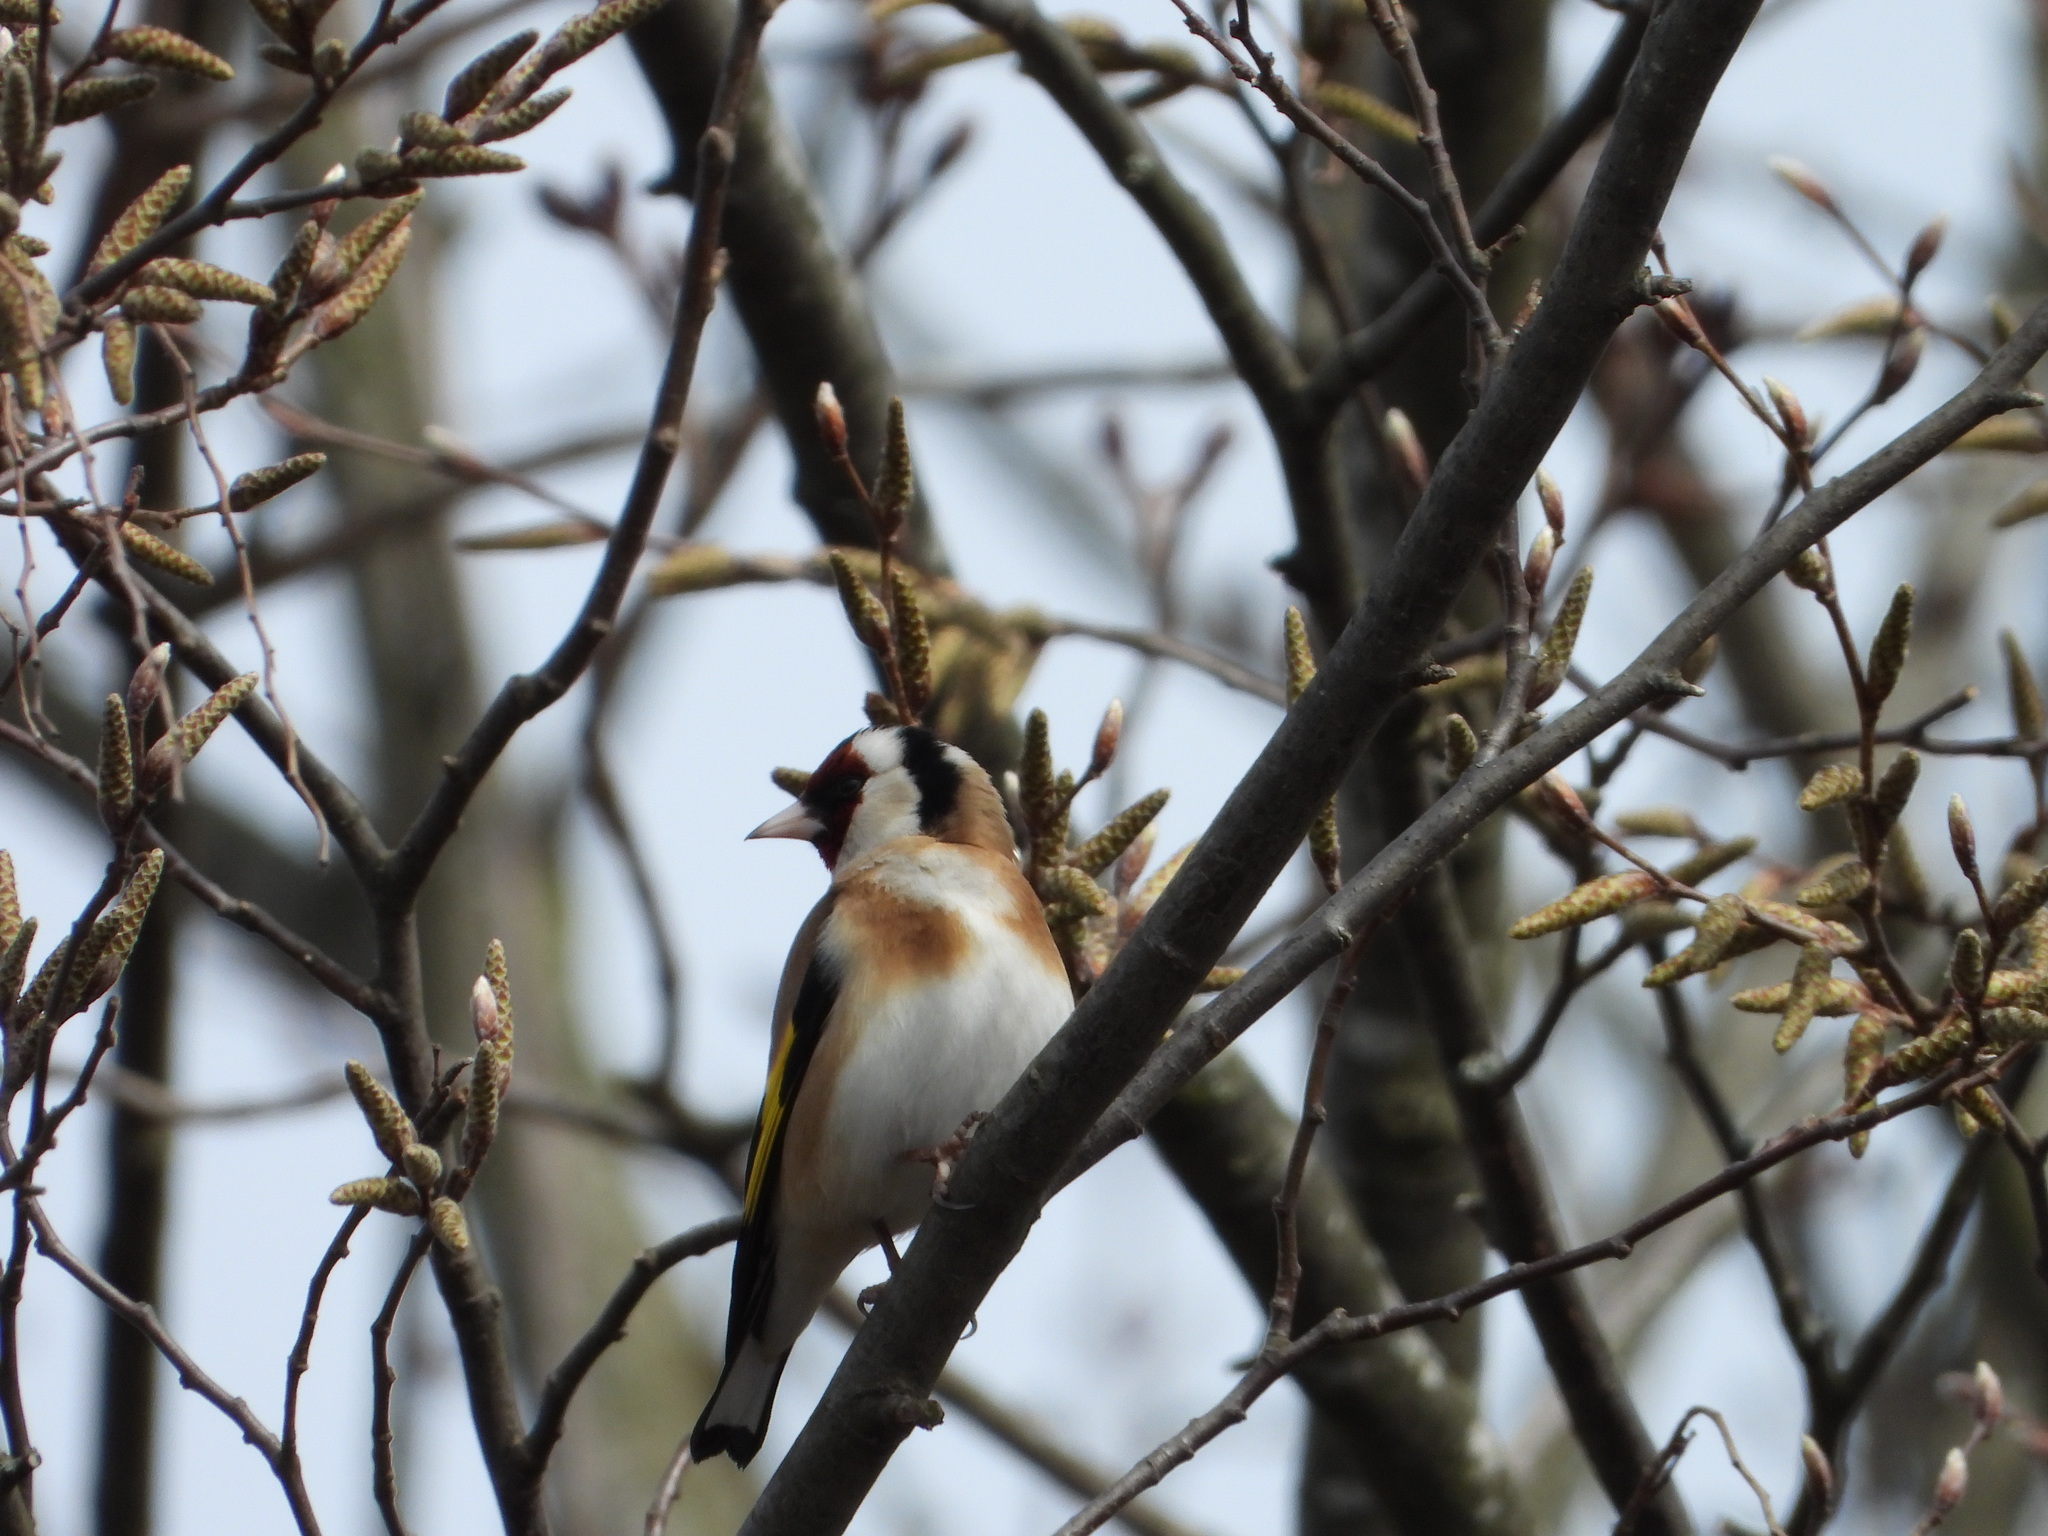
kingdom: Animalia
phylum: Chordata
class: Aves
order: Passeriformes
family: Fringillidae
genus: Carduelis
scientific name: Carduelis carduelis
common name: European goldfinch
